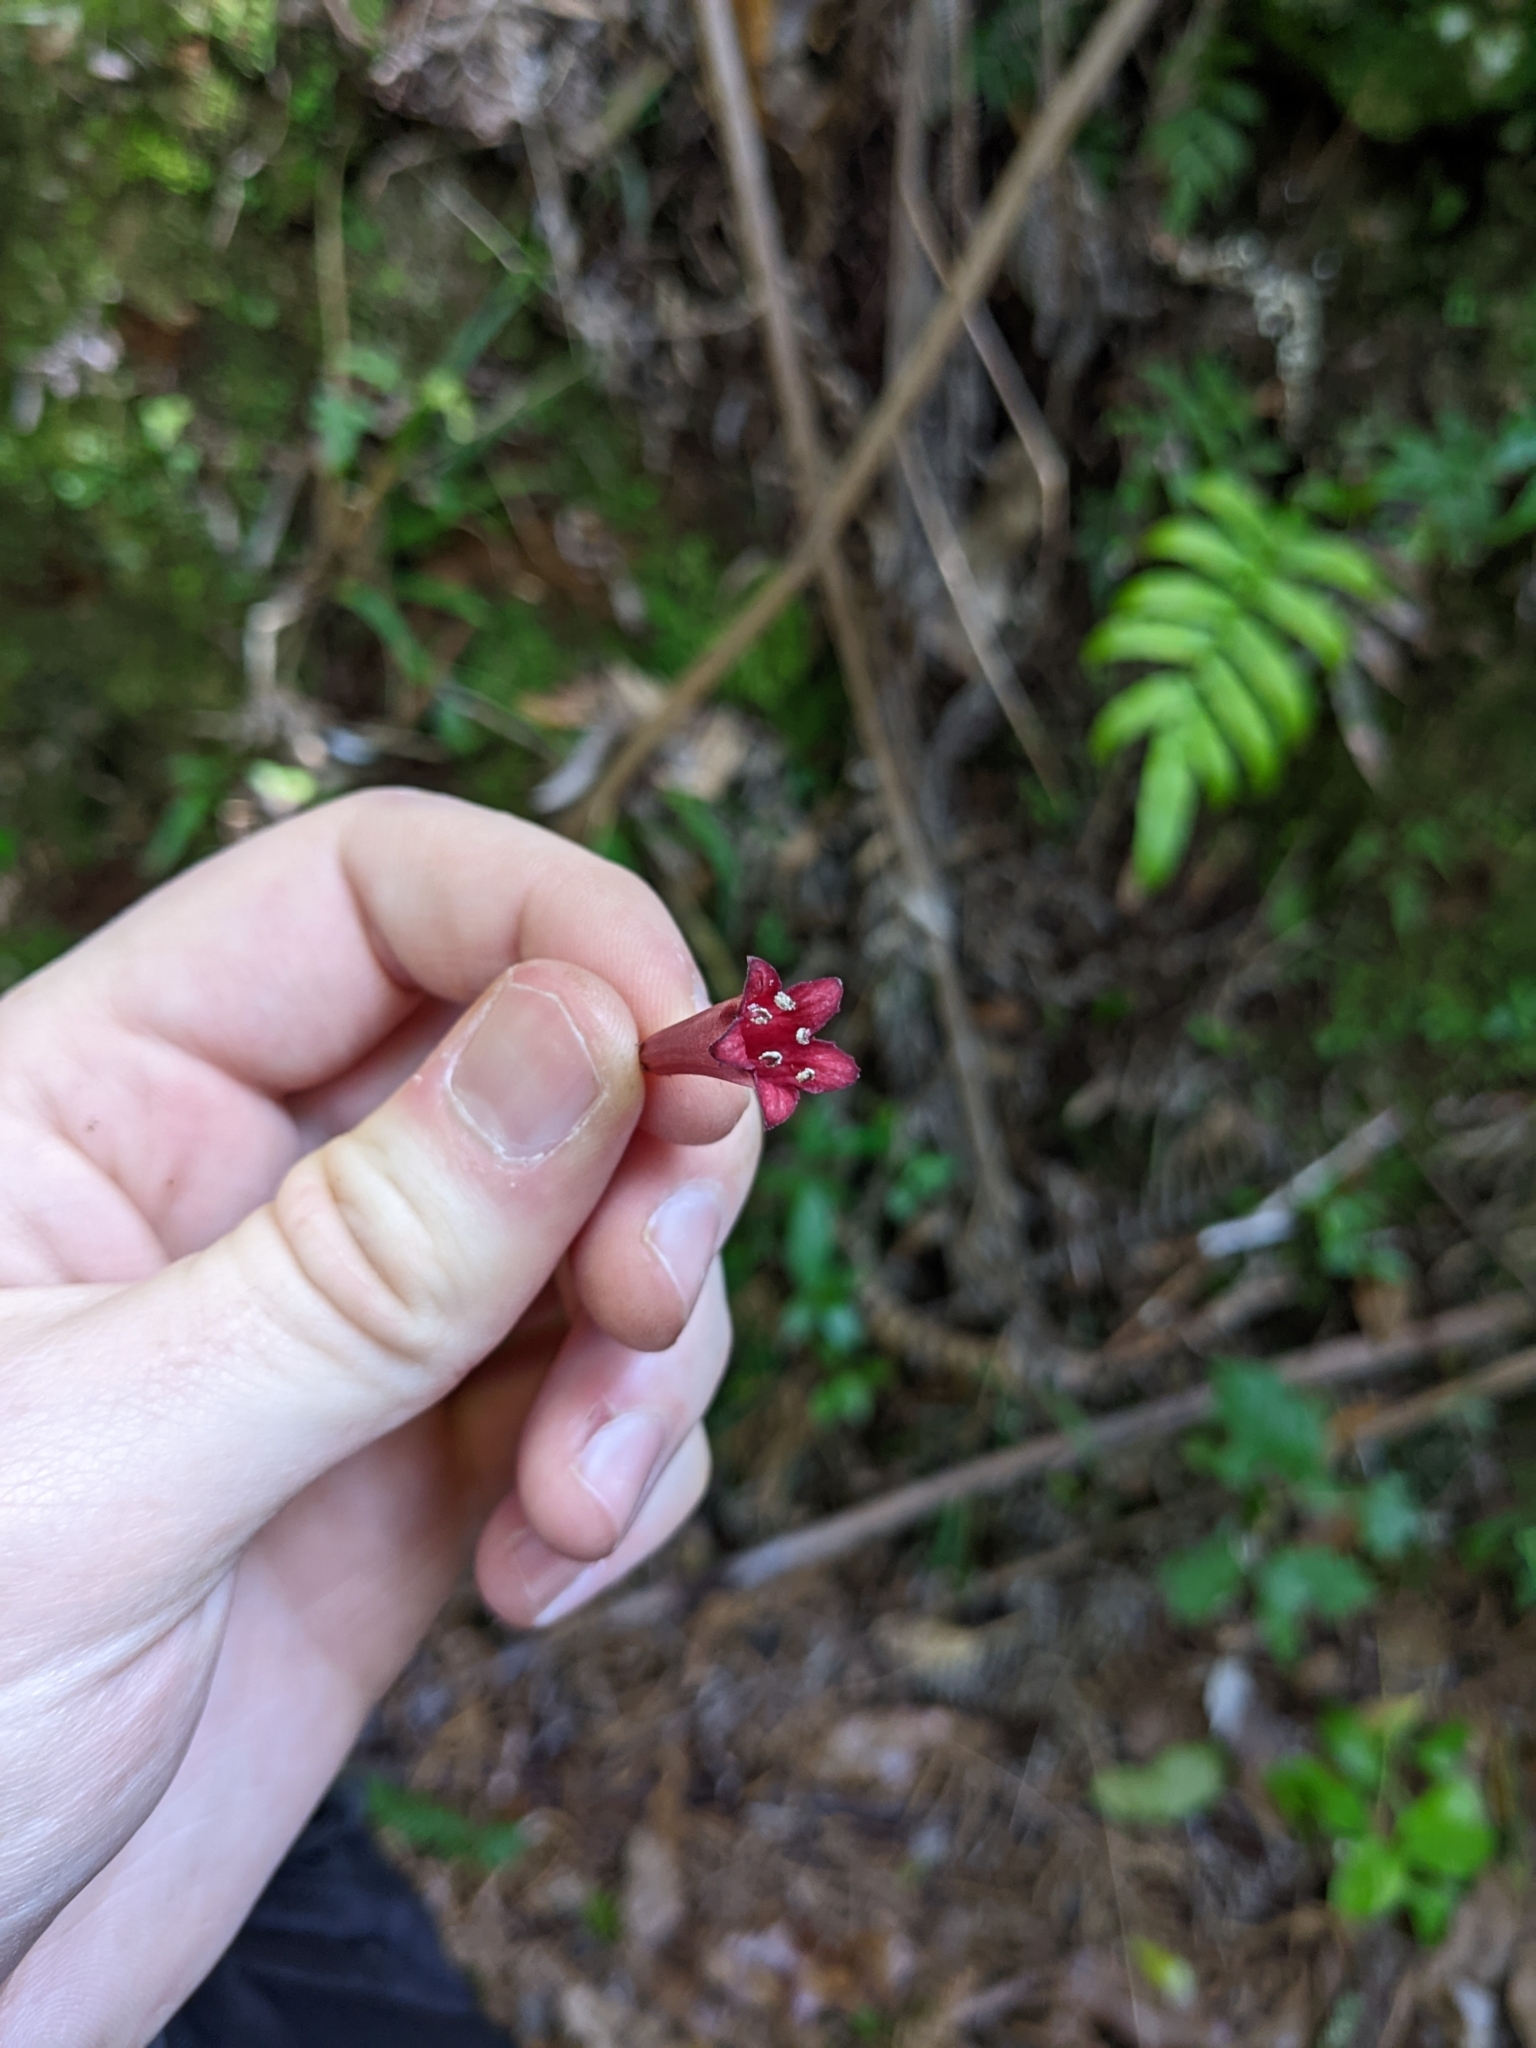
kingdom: Plantae
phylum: Tracheophyta
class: Magnoliopsida
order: Asterales
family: Alseuosmiaceae
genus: Alseuosmia
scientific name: Alseuosmia macrophylla
